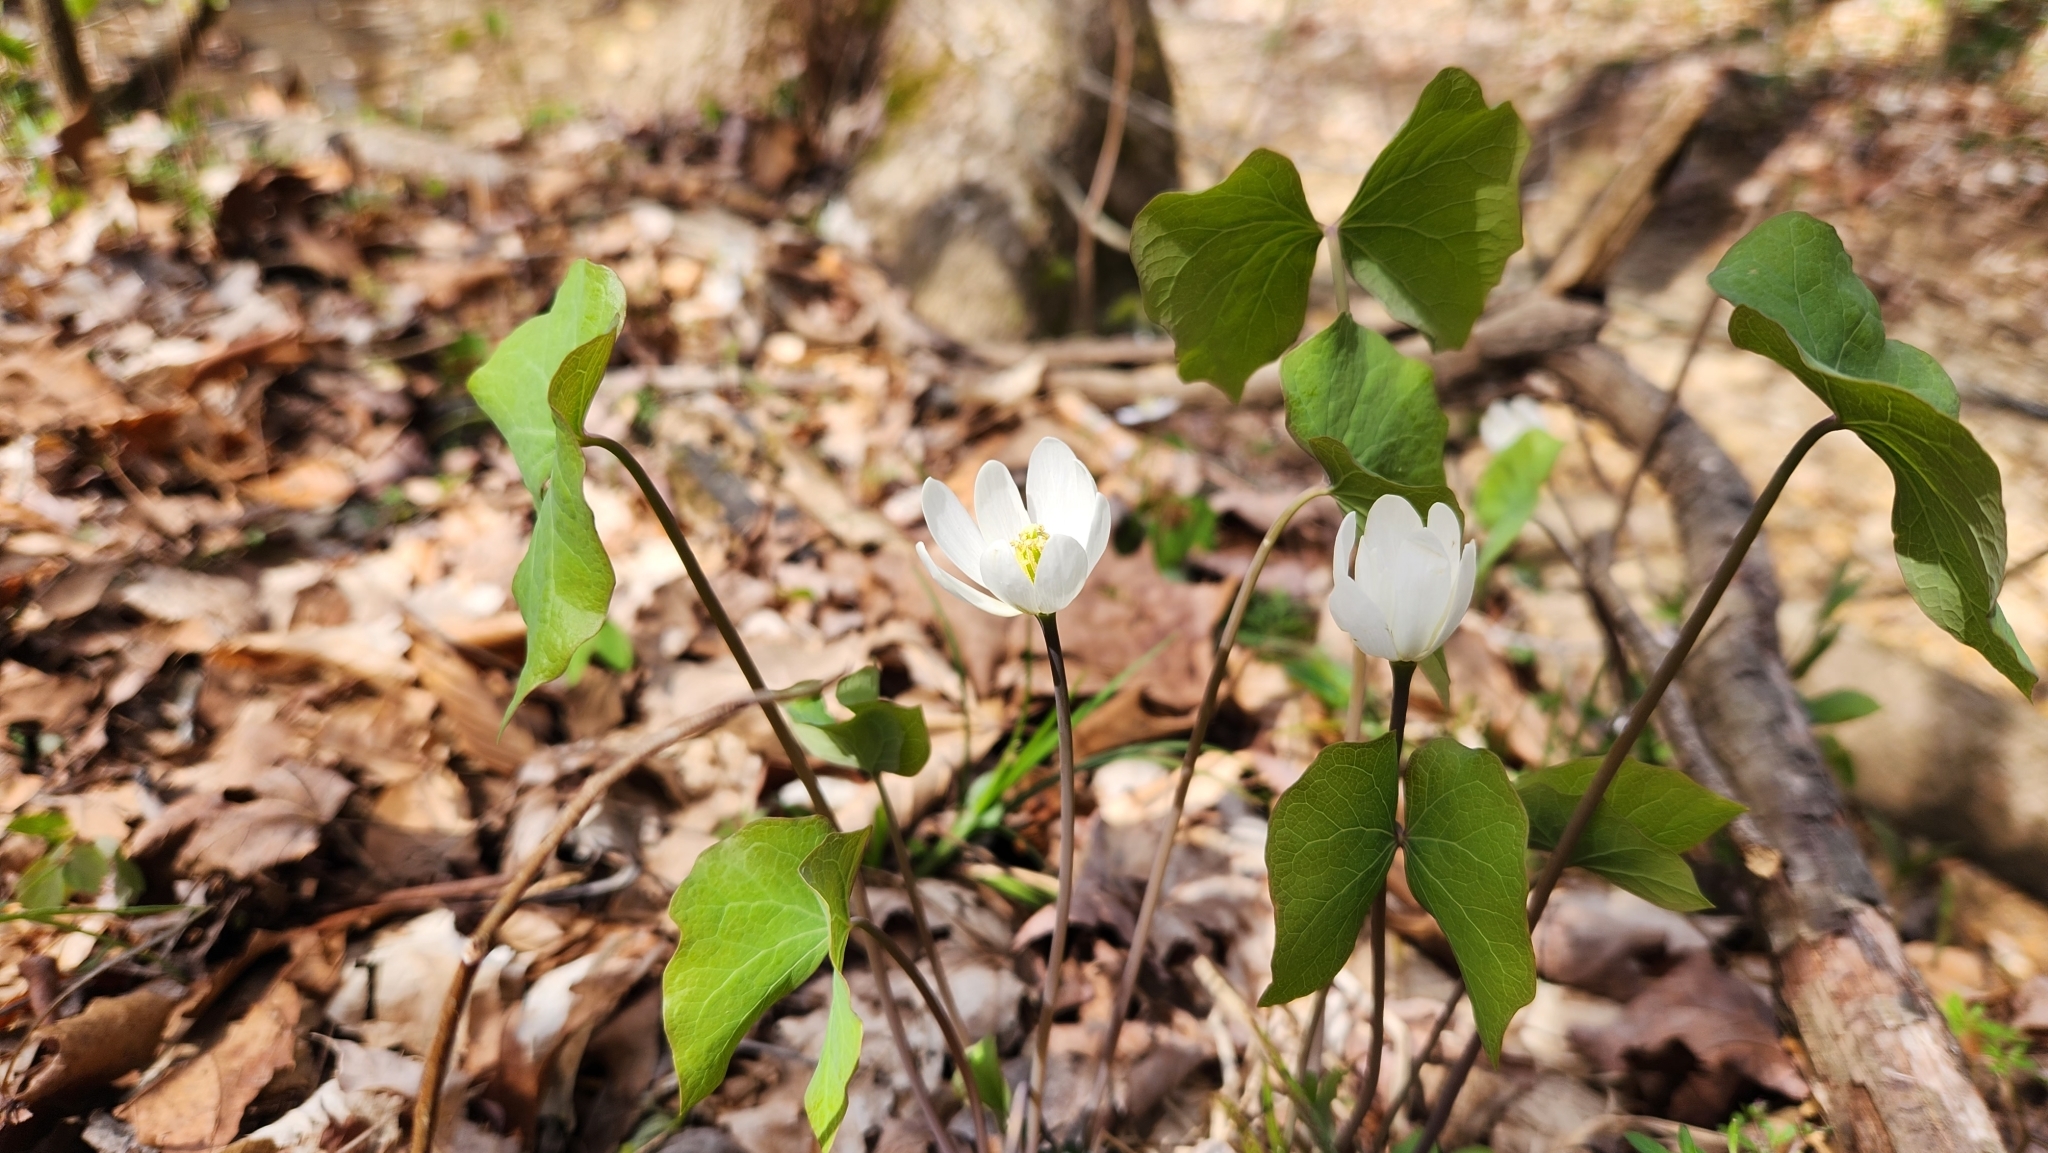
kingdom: Plantae
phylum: Tracheophyta
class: Magnoliopsida
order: Ranunculales
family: Berberidaceae
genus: Jeffersonia
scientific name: Jeffersonia diphylla
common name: Rheumatism-root
